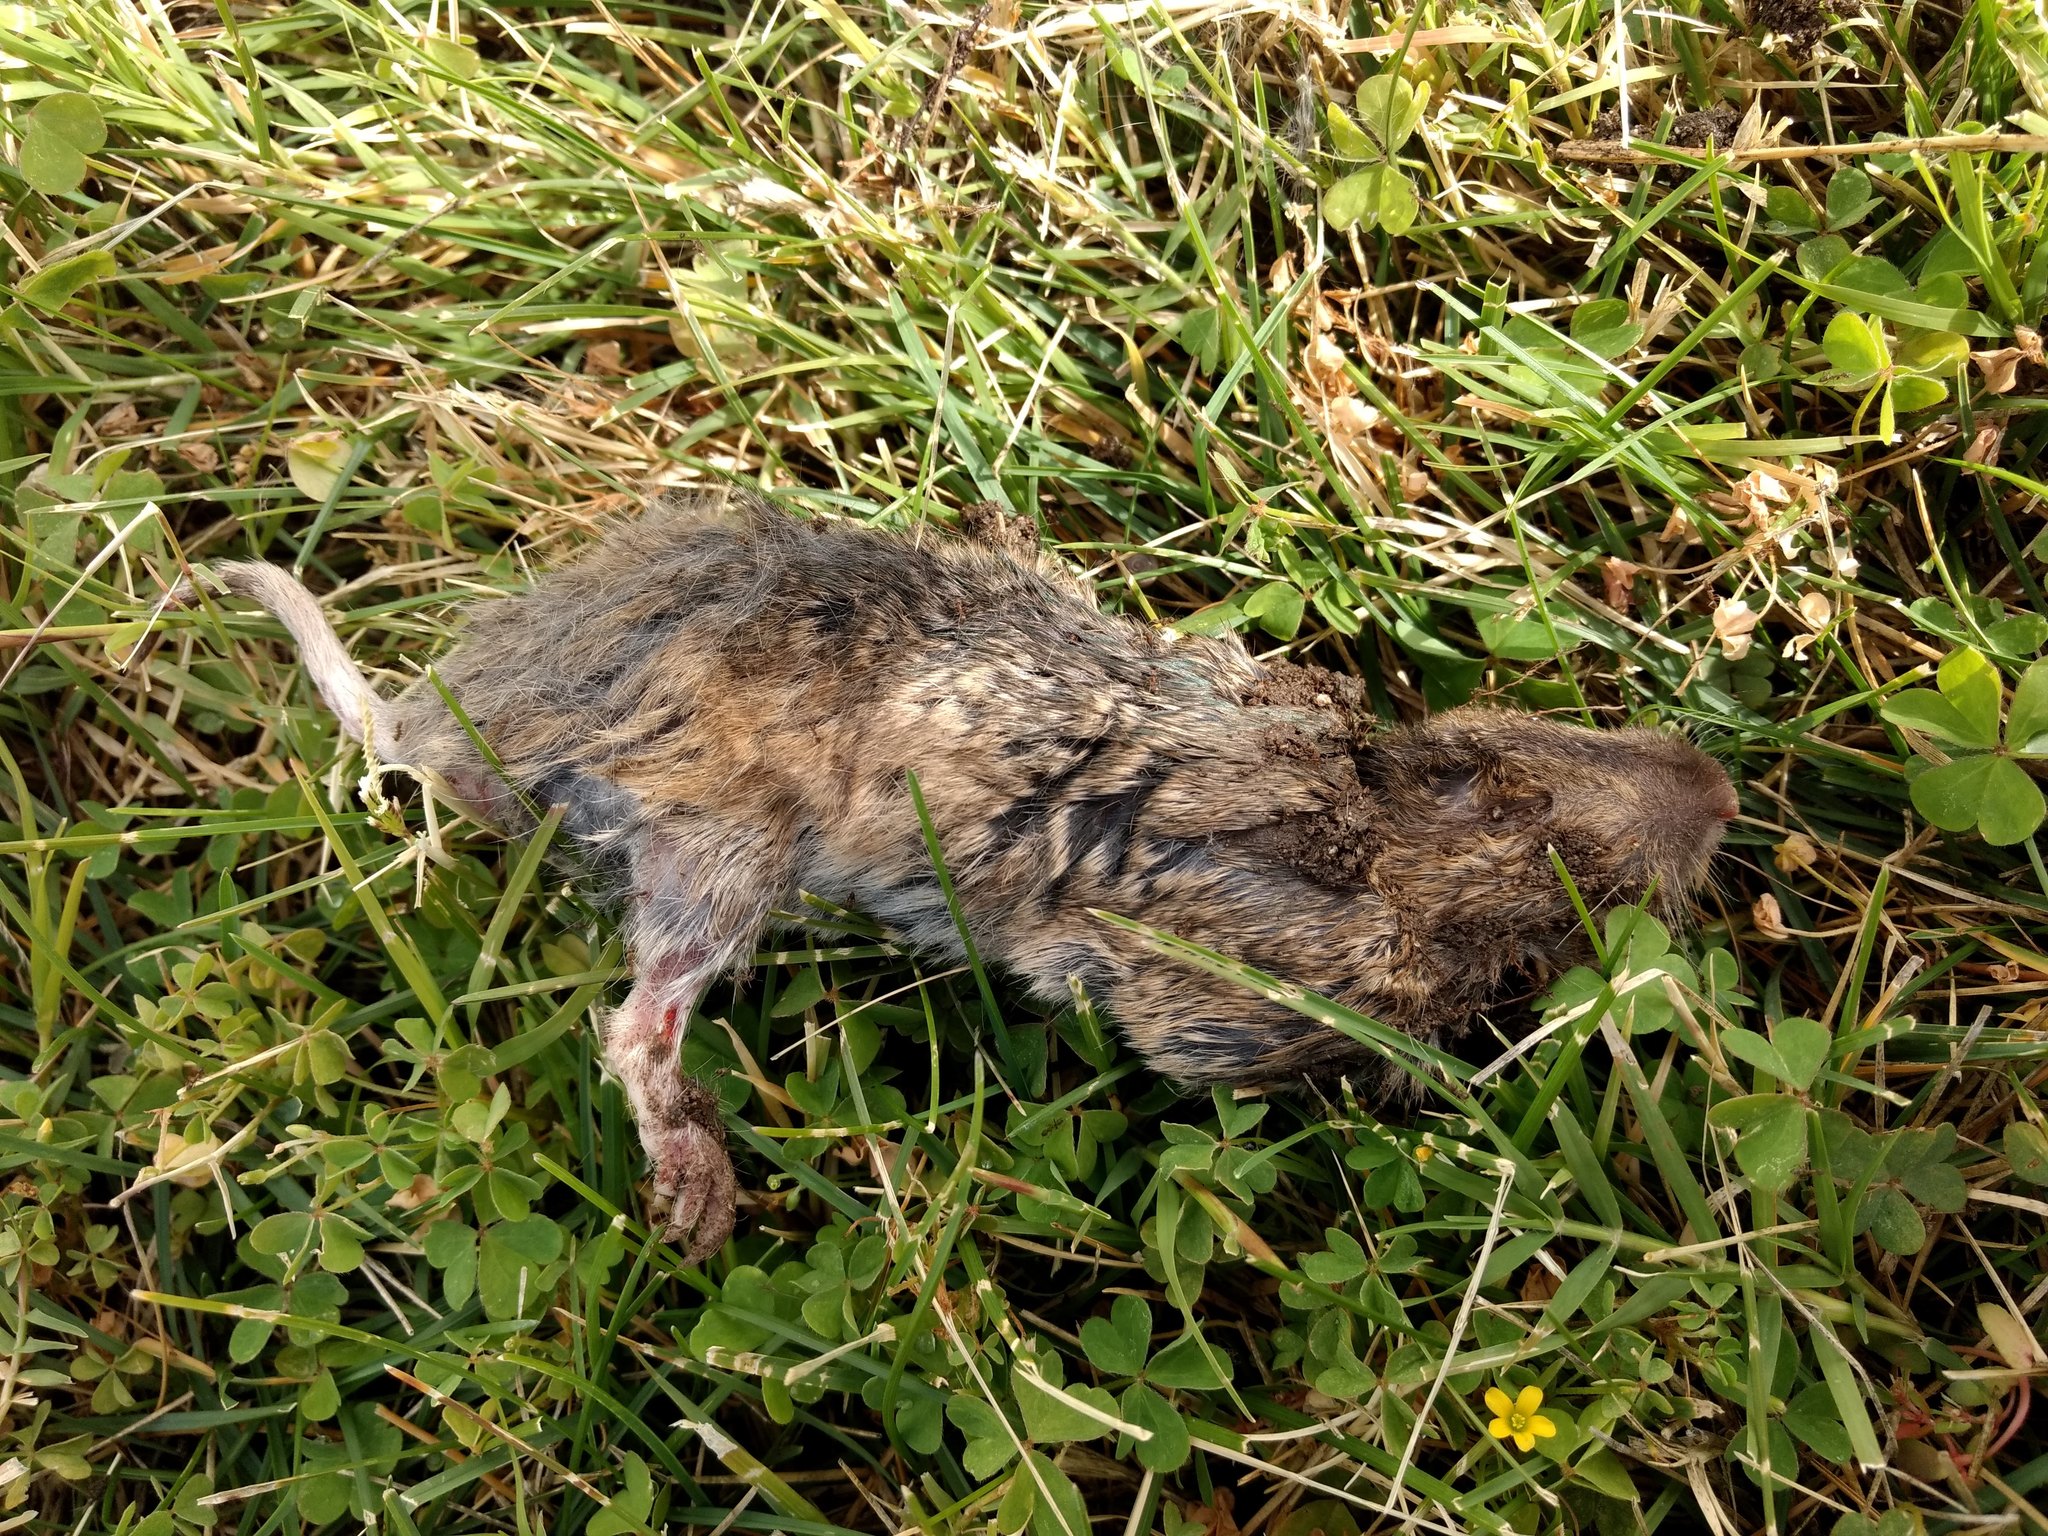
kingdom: Animalia
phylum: Chordata
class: Mammalia
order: Rodentia
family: Geomyidae
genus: Thomomys
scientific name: Thomomys bottae
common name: Botta's pocket gopher
